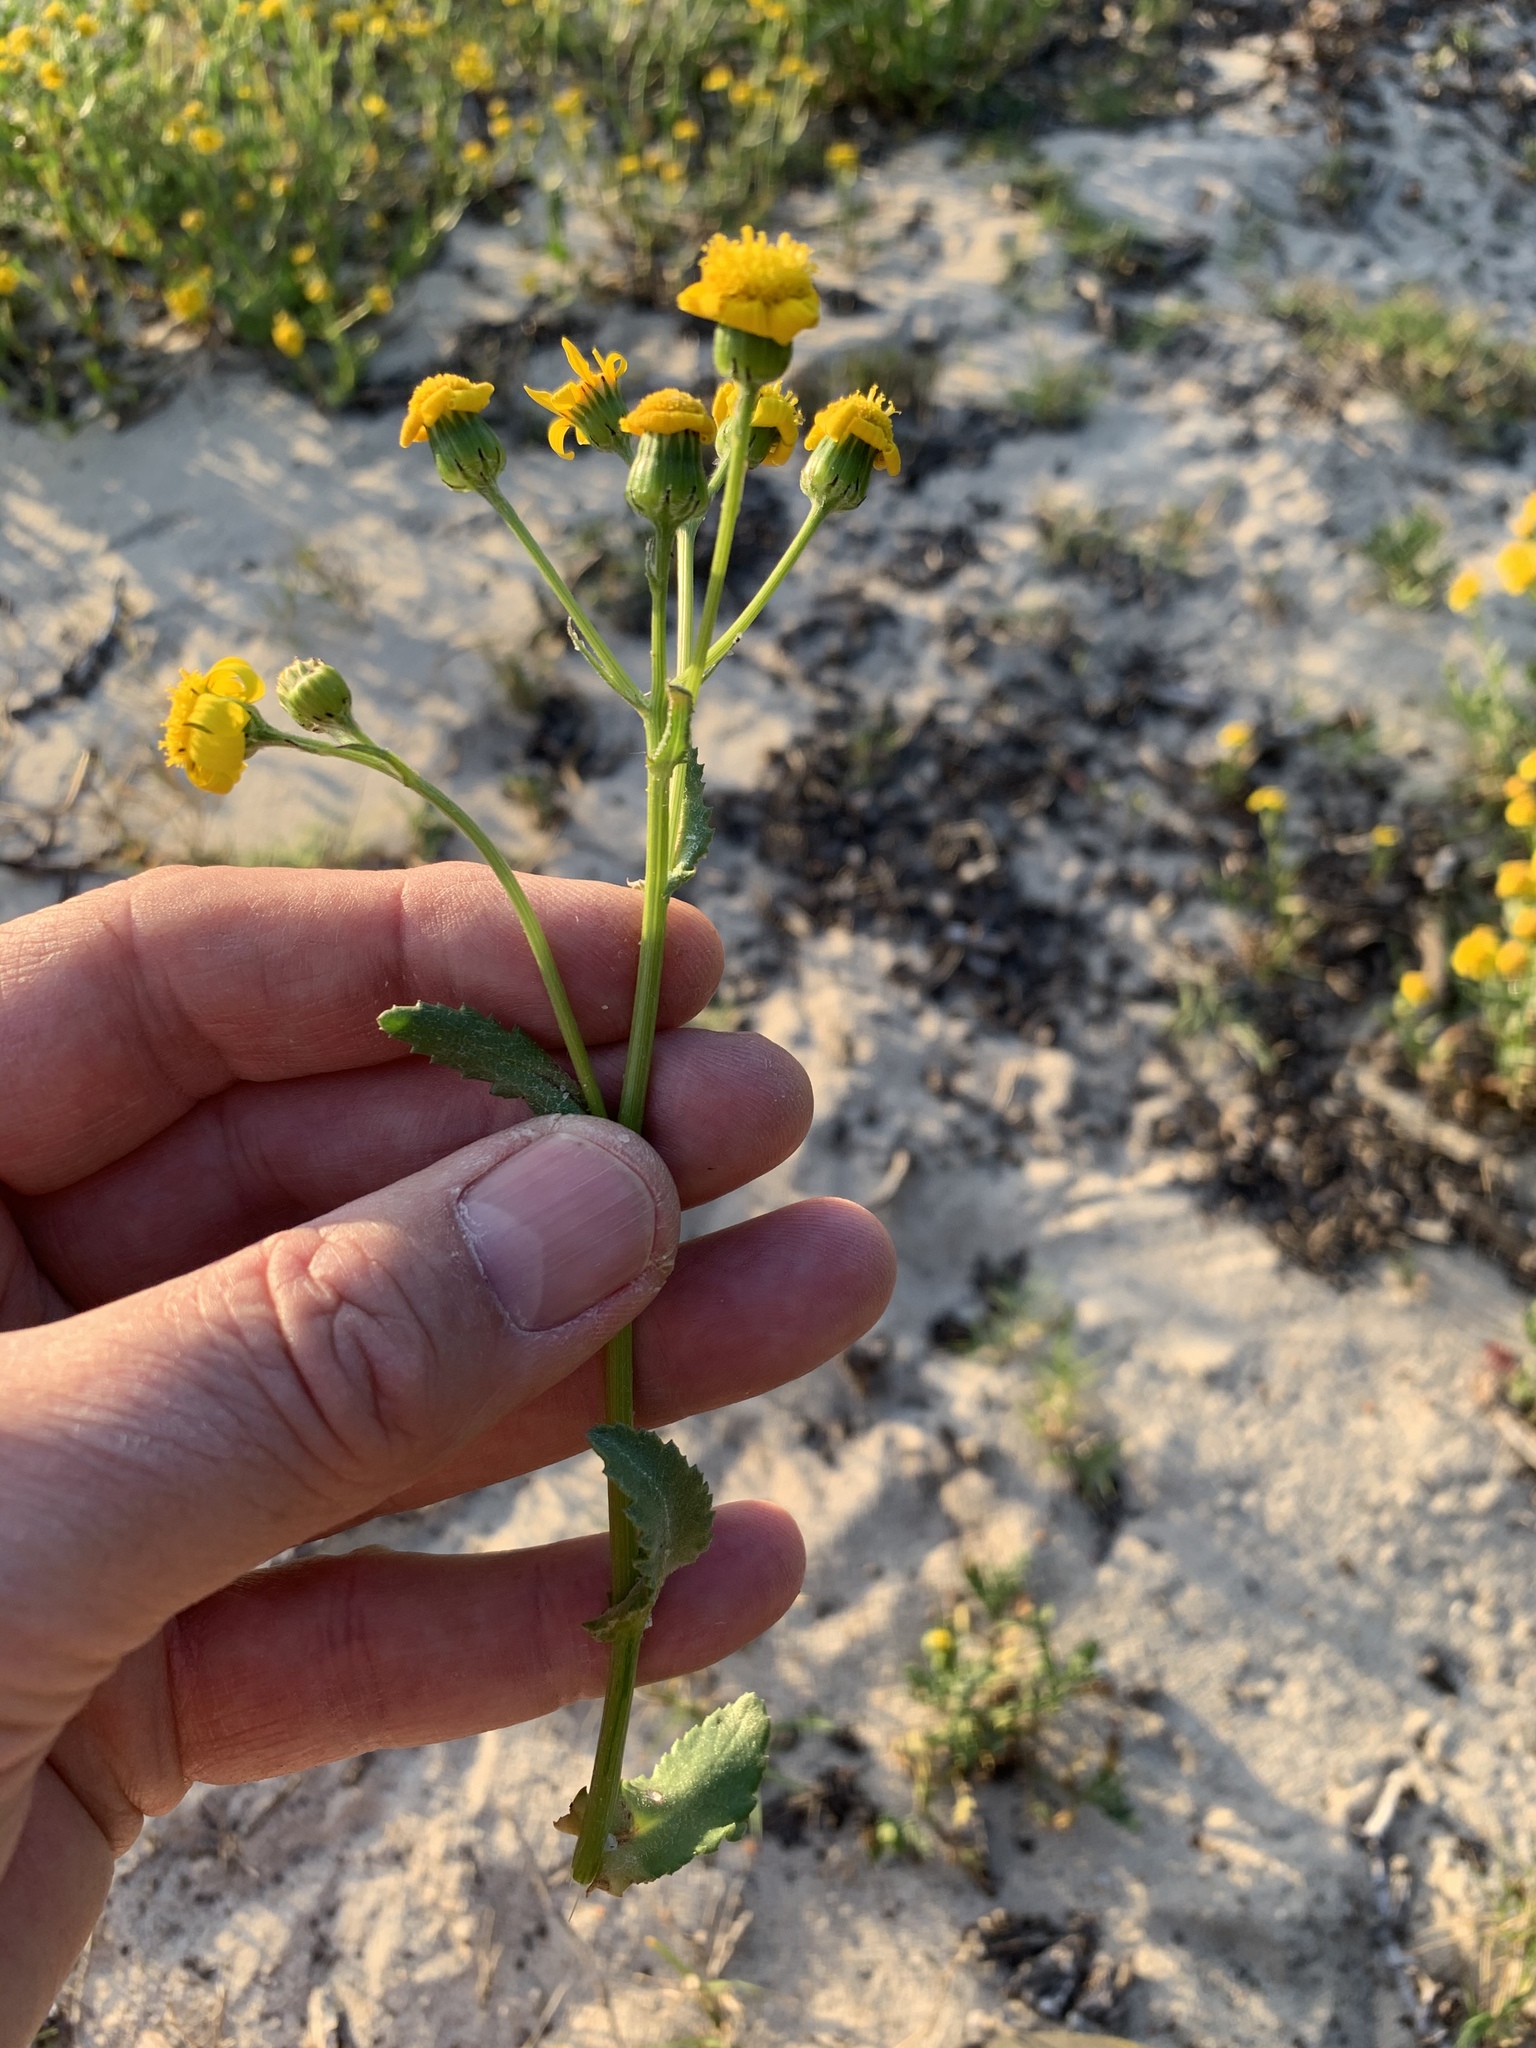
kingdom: Plantae
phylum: Tracheophyta
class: Magnoliopsida
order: Asterales
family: Asteraceae
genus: Senecio
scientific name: Senecio littoreus
